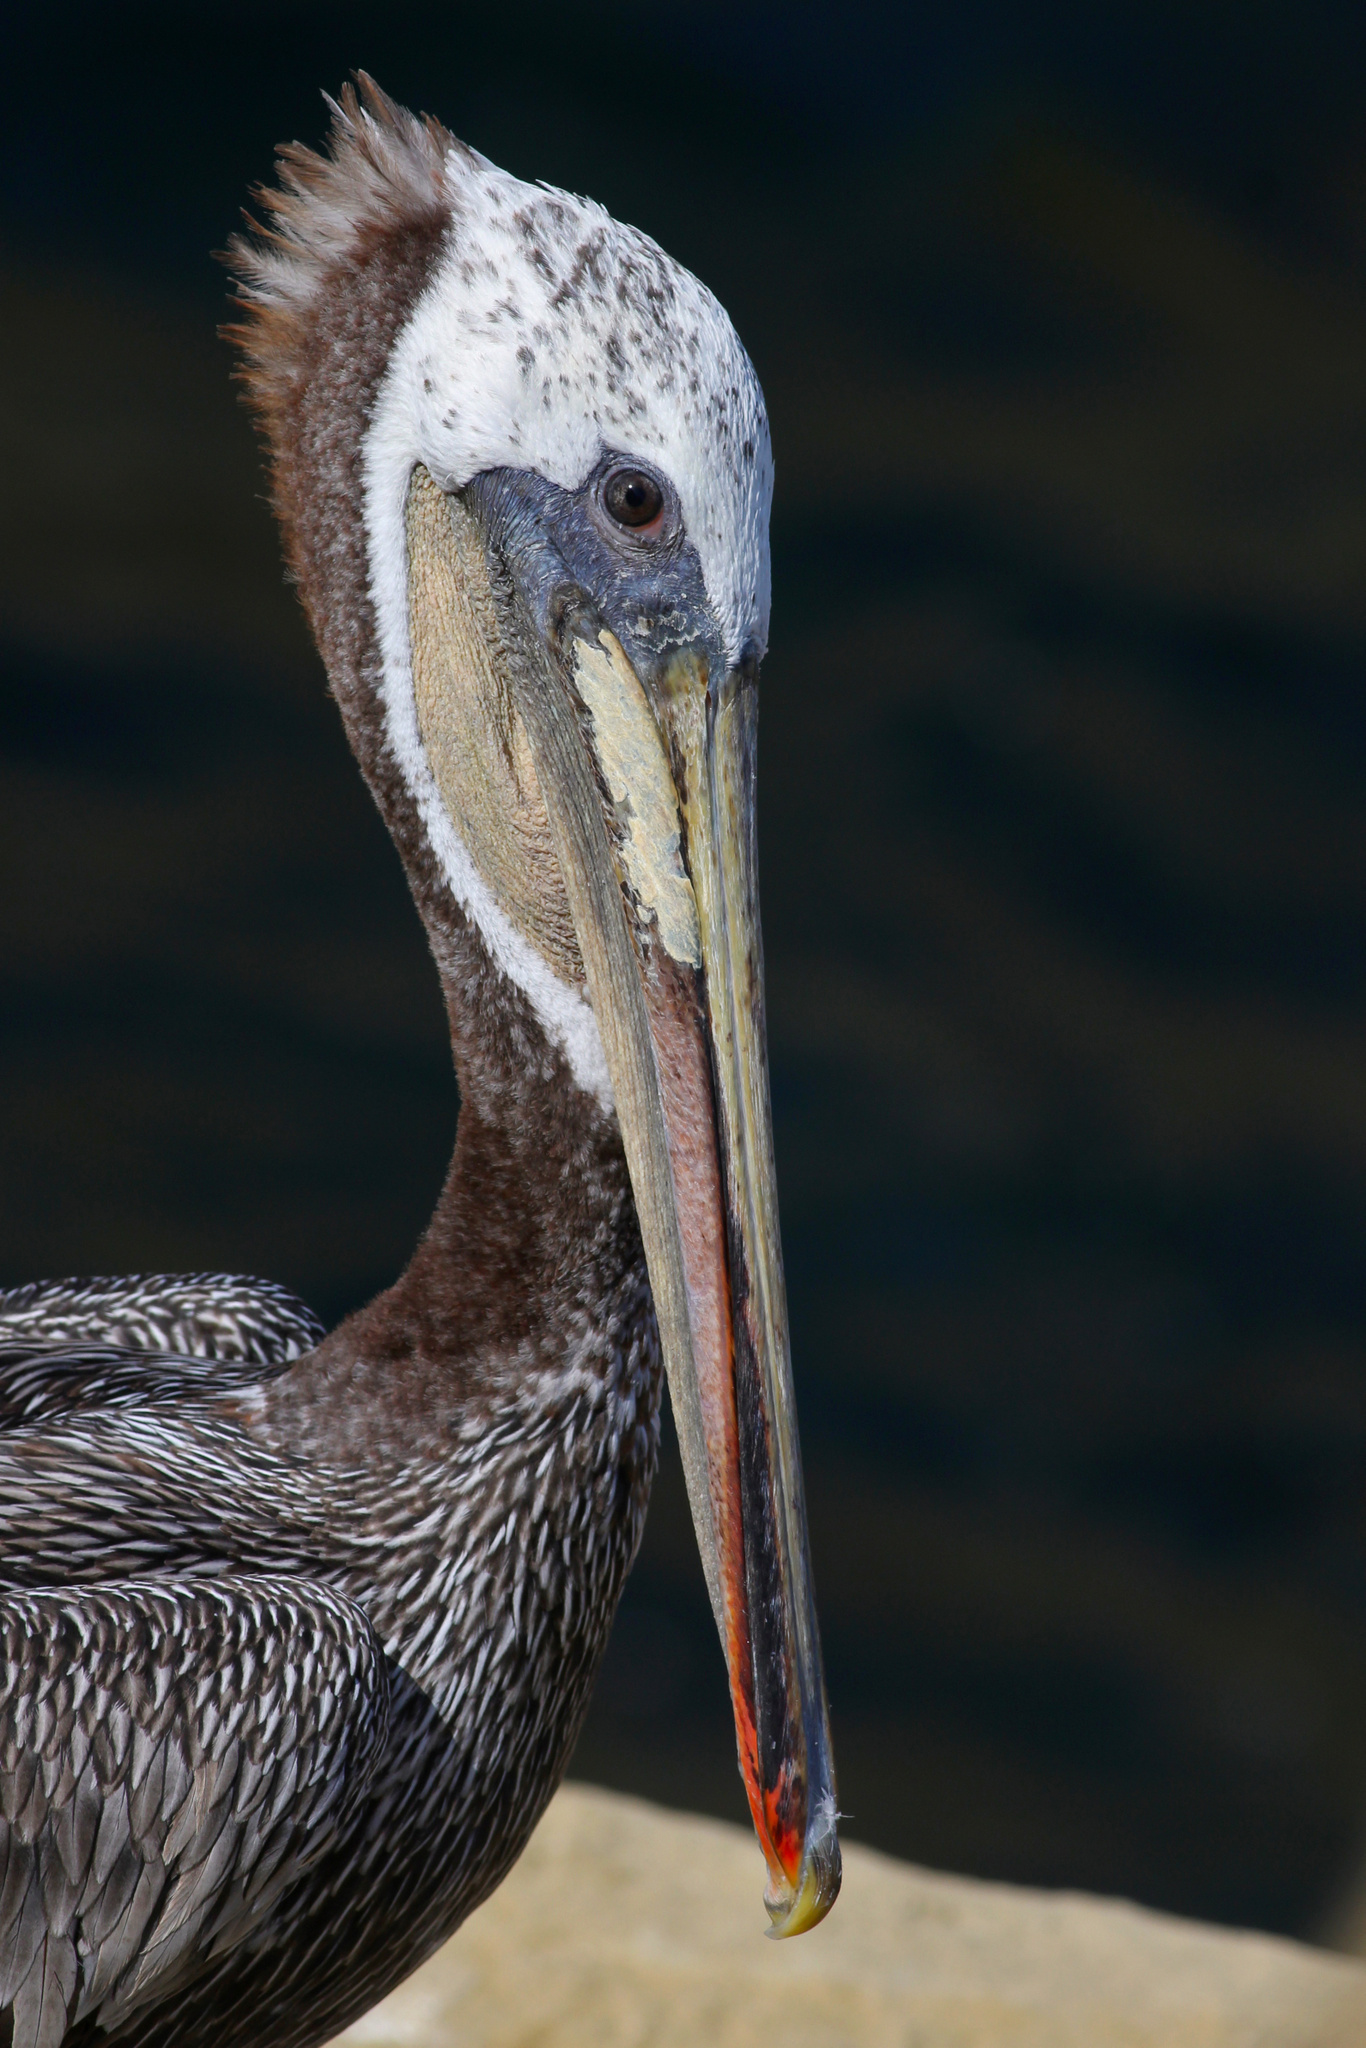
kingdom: Animalia
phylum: Chordata
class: Aves
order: Pelecaniformes
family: Pelecanidae
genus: Pelecanus
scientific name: Pelecanus occidentalis
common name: Brown pelican
